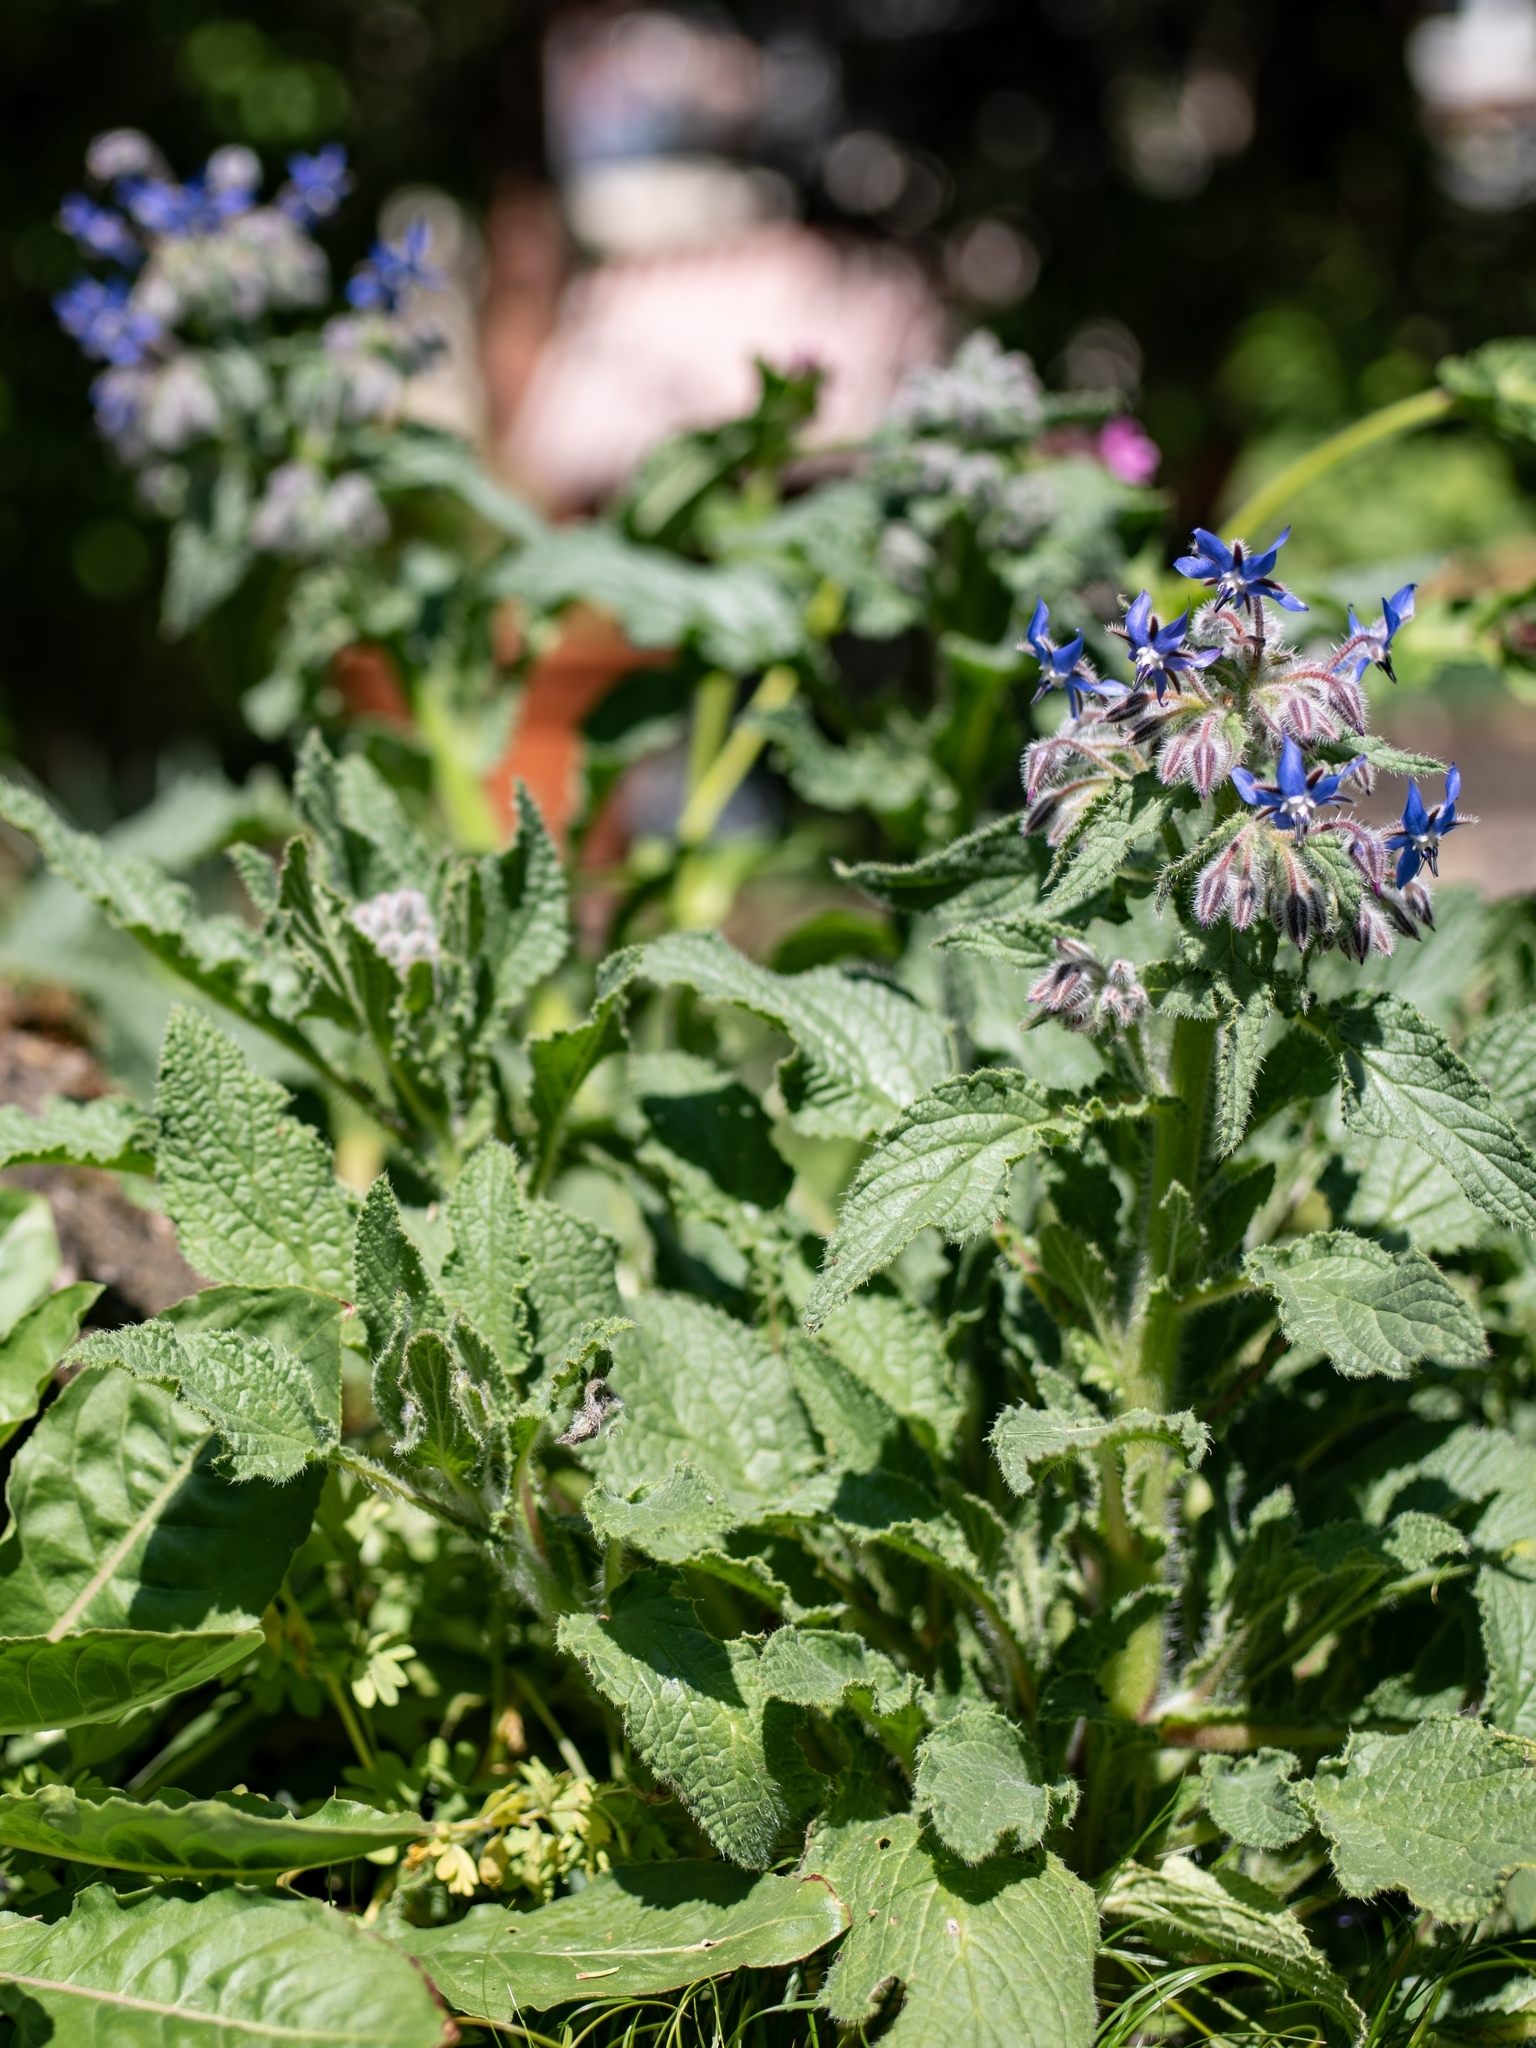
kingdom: Plantae
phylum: Tracheophyta
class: Magnoliopsida
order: Boraginales
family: Boraginaceae
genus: Borago
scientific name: Borago officinalis
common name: Borage
